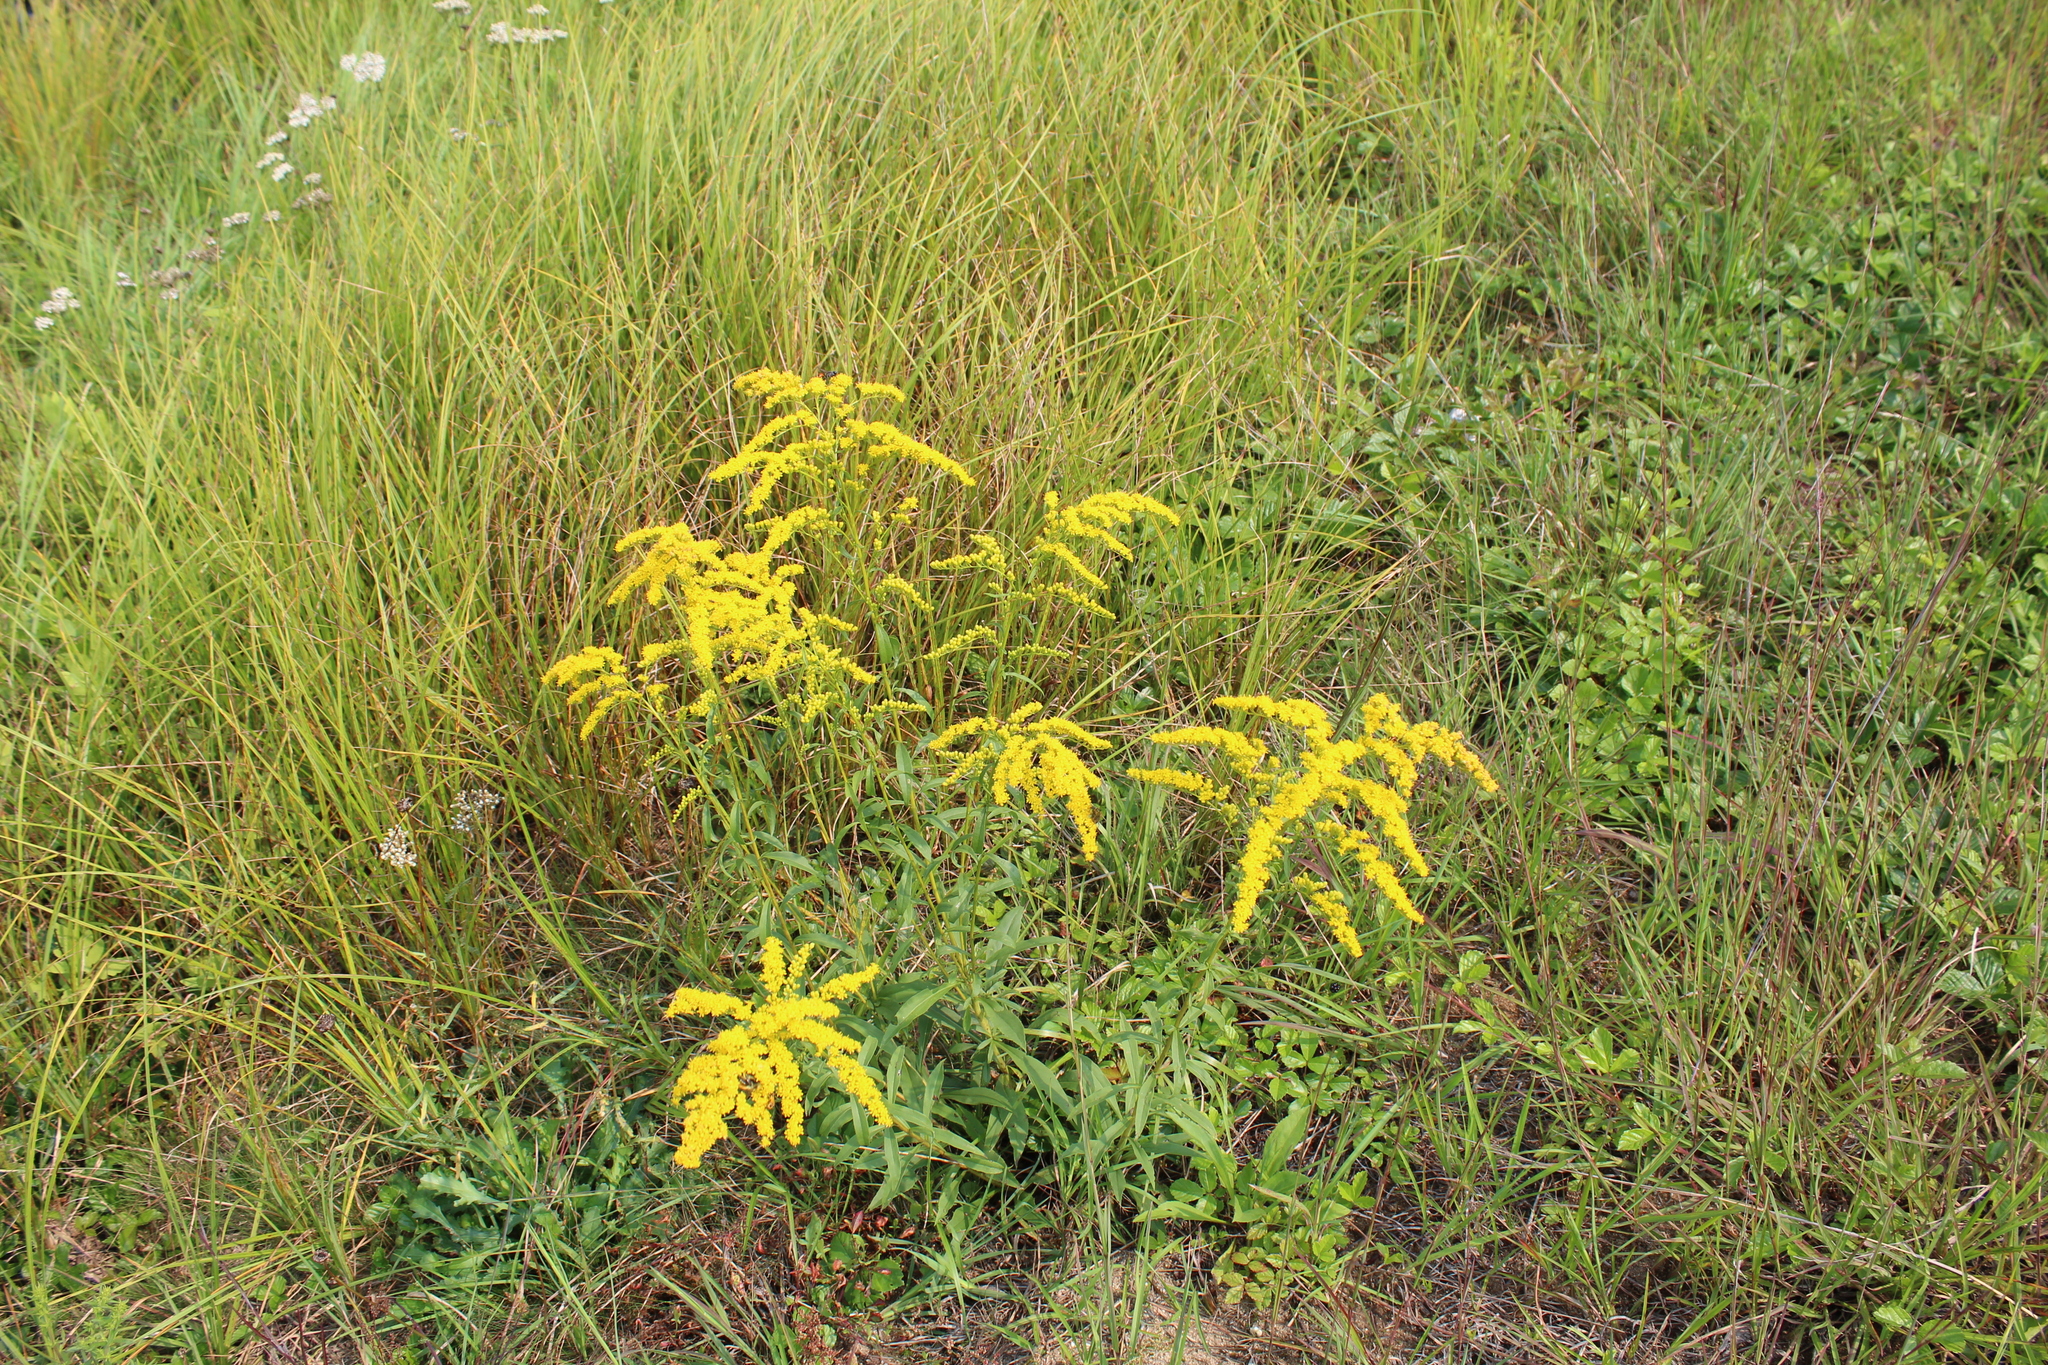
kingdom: Plantae
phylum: Tracheophyta
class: Magnoliopsida
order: Asterales
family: Asteraceae
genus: Solidago
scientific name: Solidago juncea
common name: Early goldenrod
